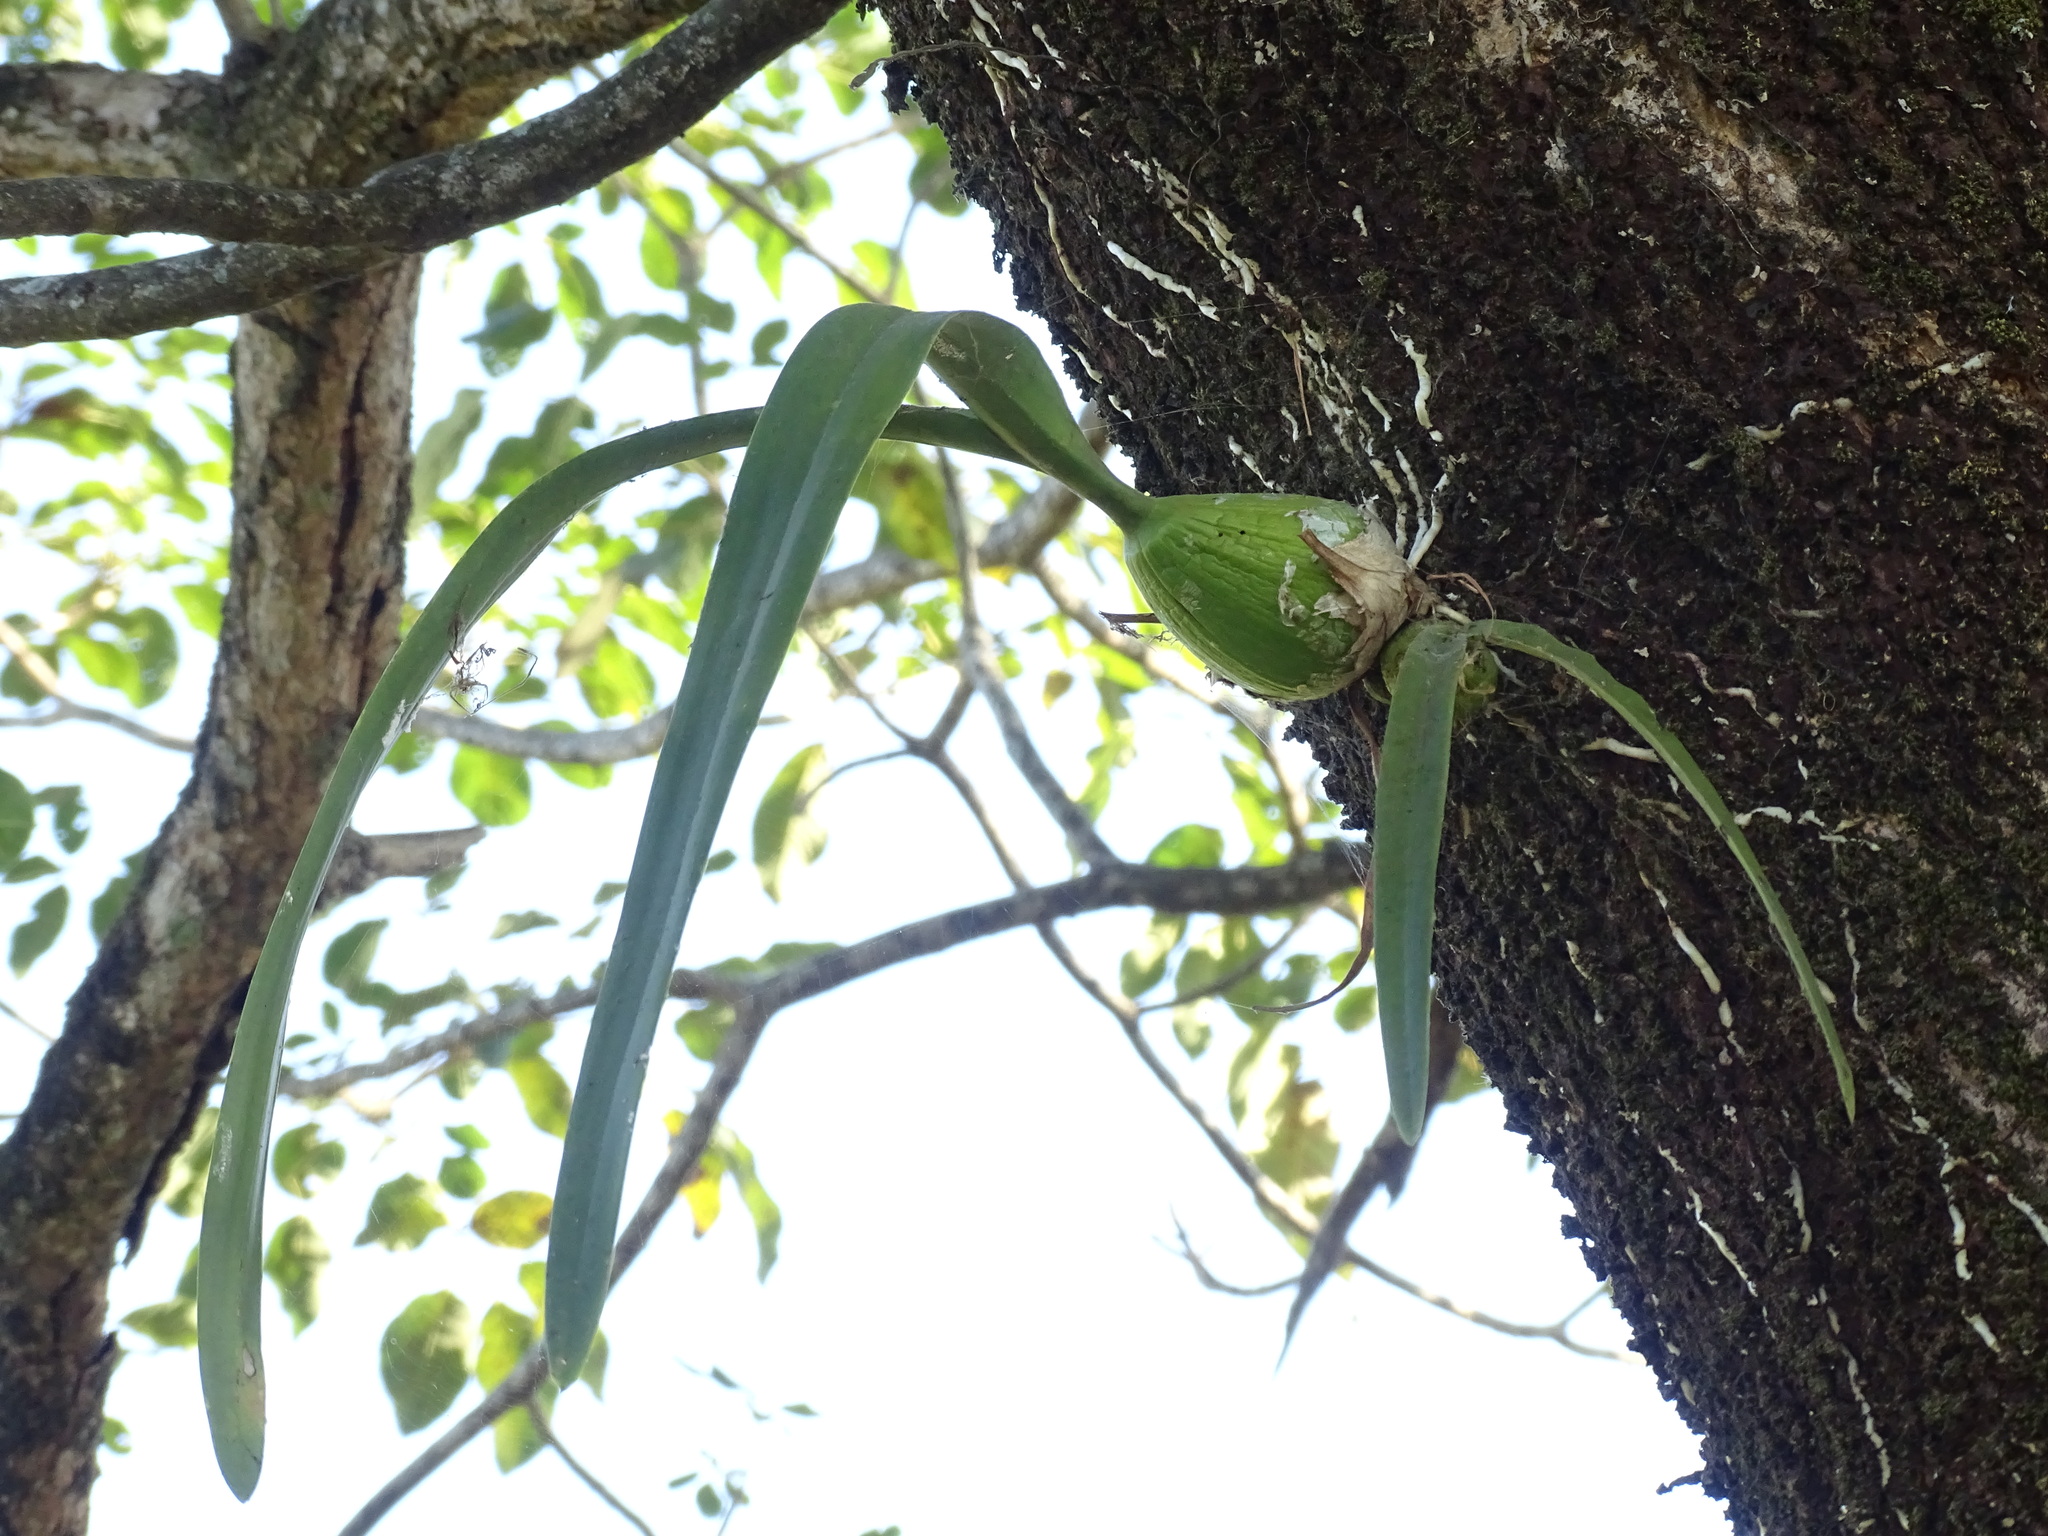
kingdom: Plantae
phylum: Tracheophyta
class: Liliopsida
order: Asparagales
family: Orchidaceae
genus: Encyclia
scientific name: Encyclia cordigera
